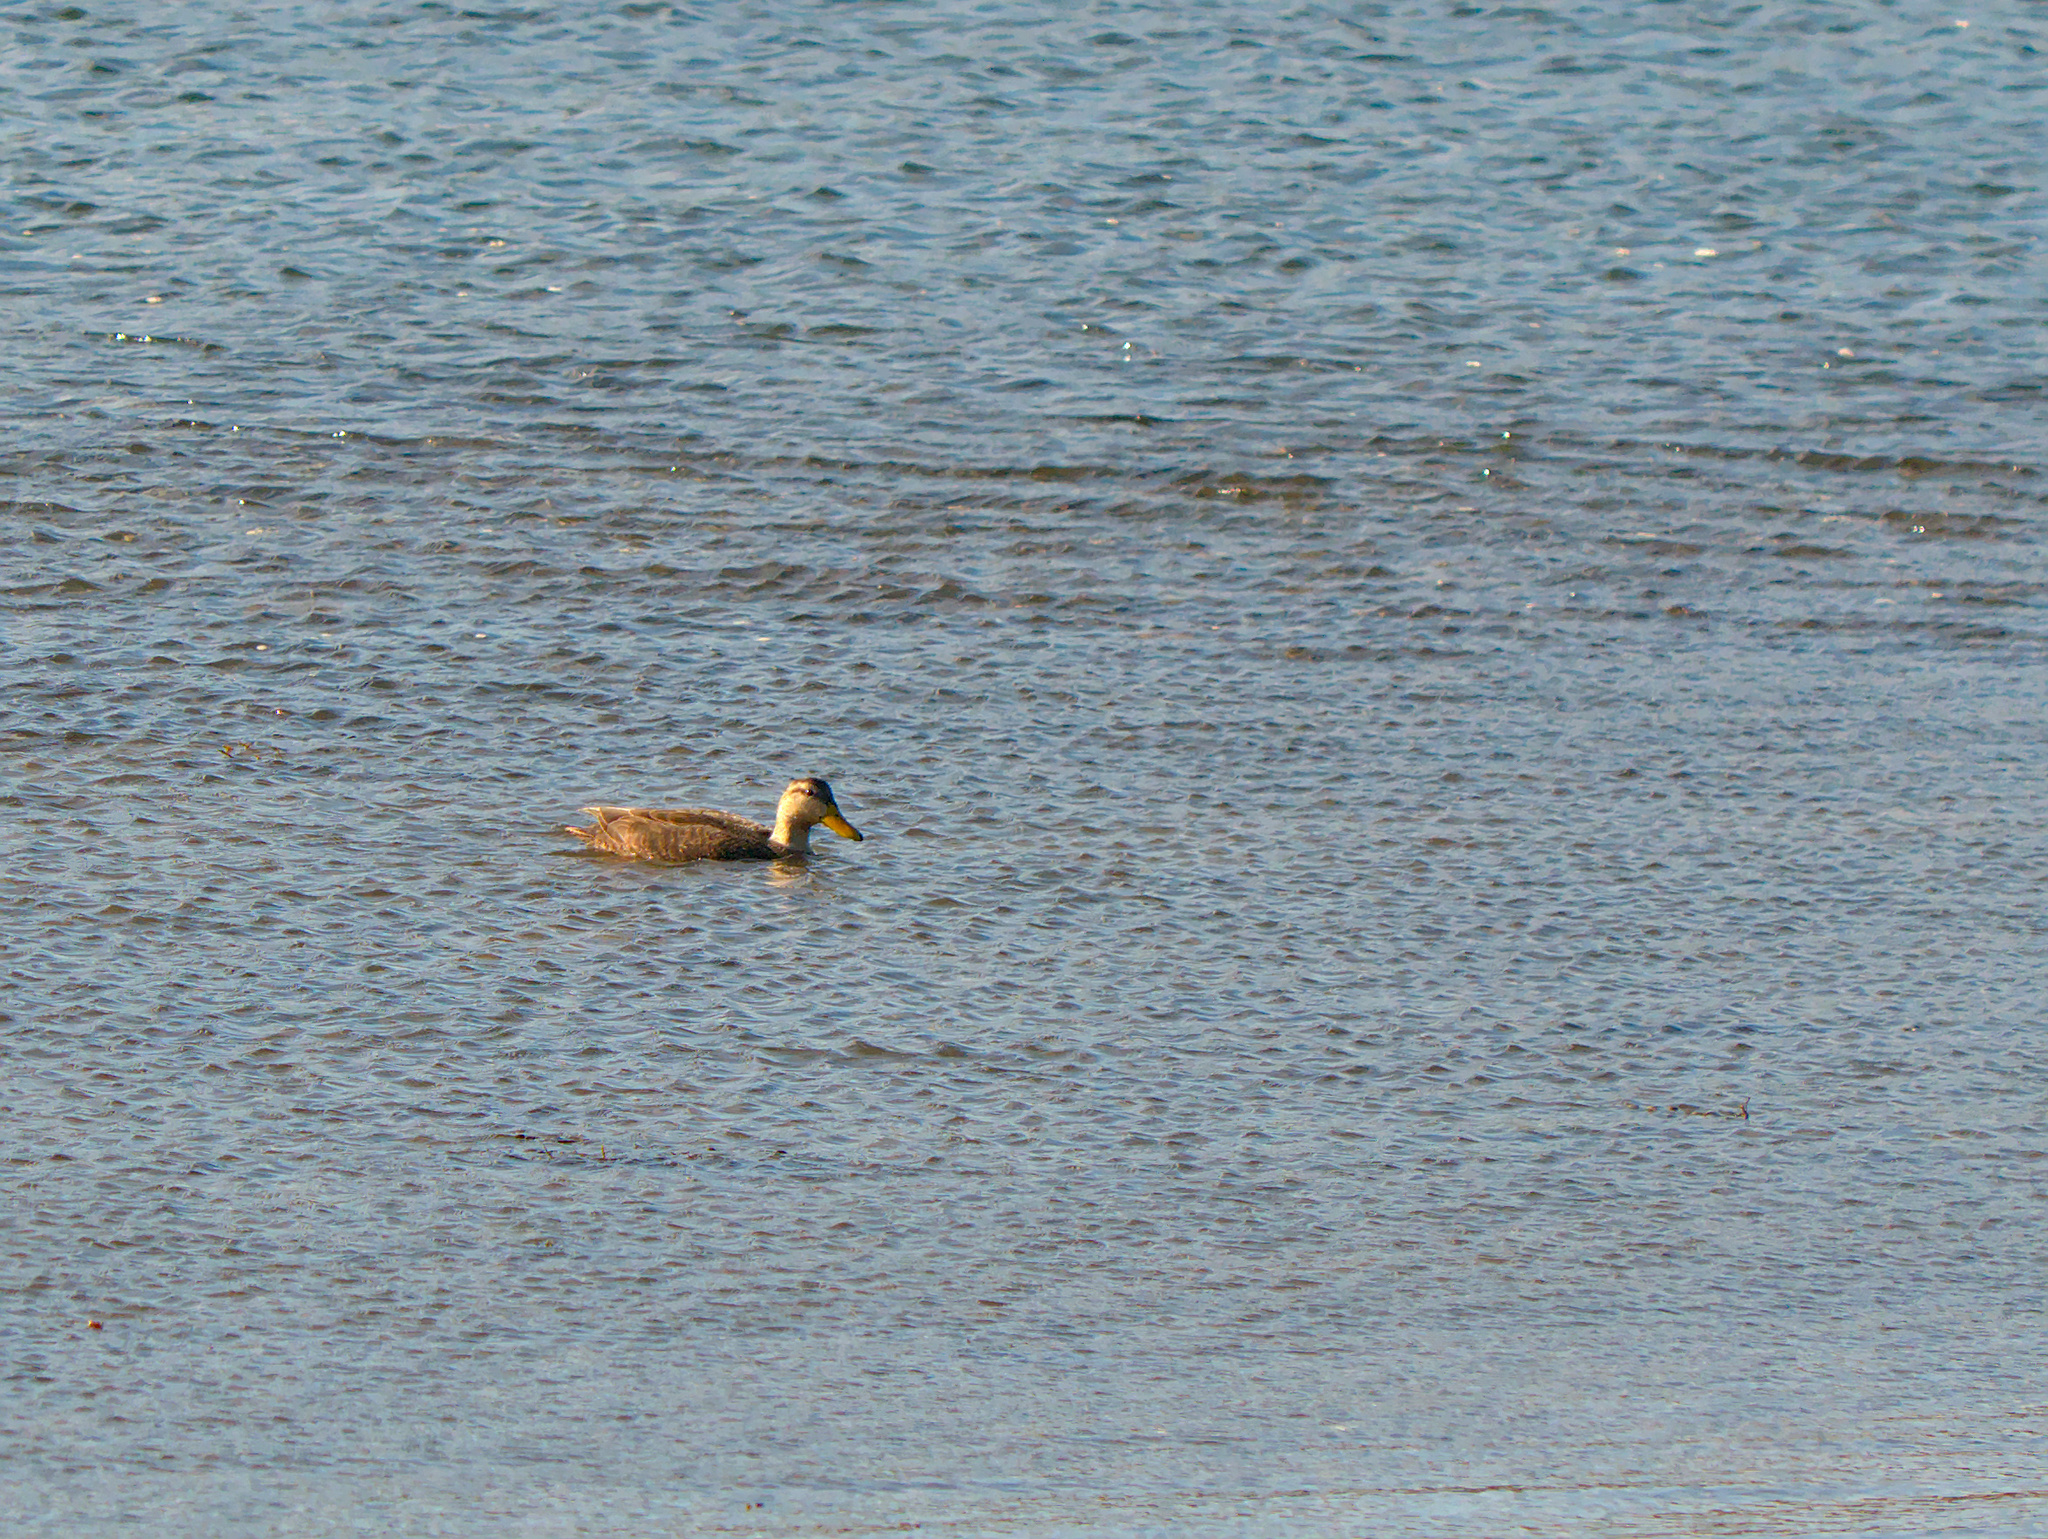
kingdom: Animalia
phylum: Chordata
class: Aves
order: Anseriformes
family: Anatidae
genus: Anas
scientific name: Anas rubripes
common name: American black duck
